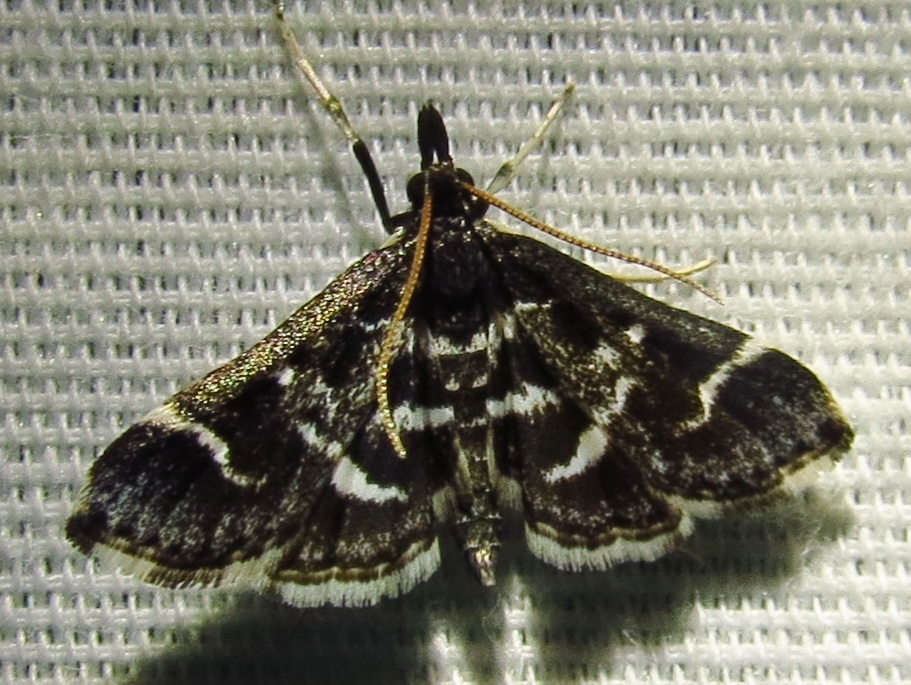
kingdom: Animalia
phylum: Arthropoda
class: Insecta
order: Lepidoptera
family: Crambidae
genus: Diasemiodes
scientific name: Diasemiodes janassialis
